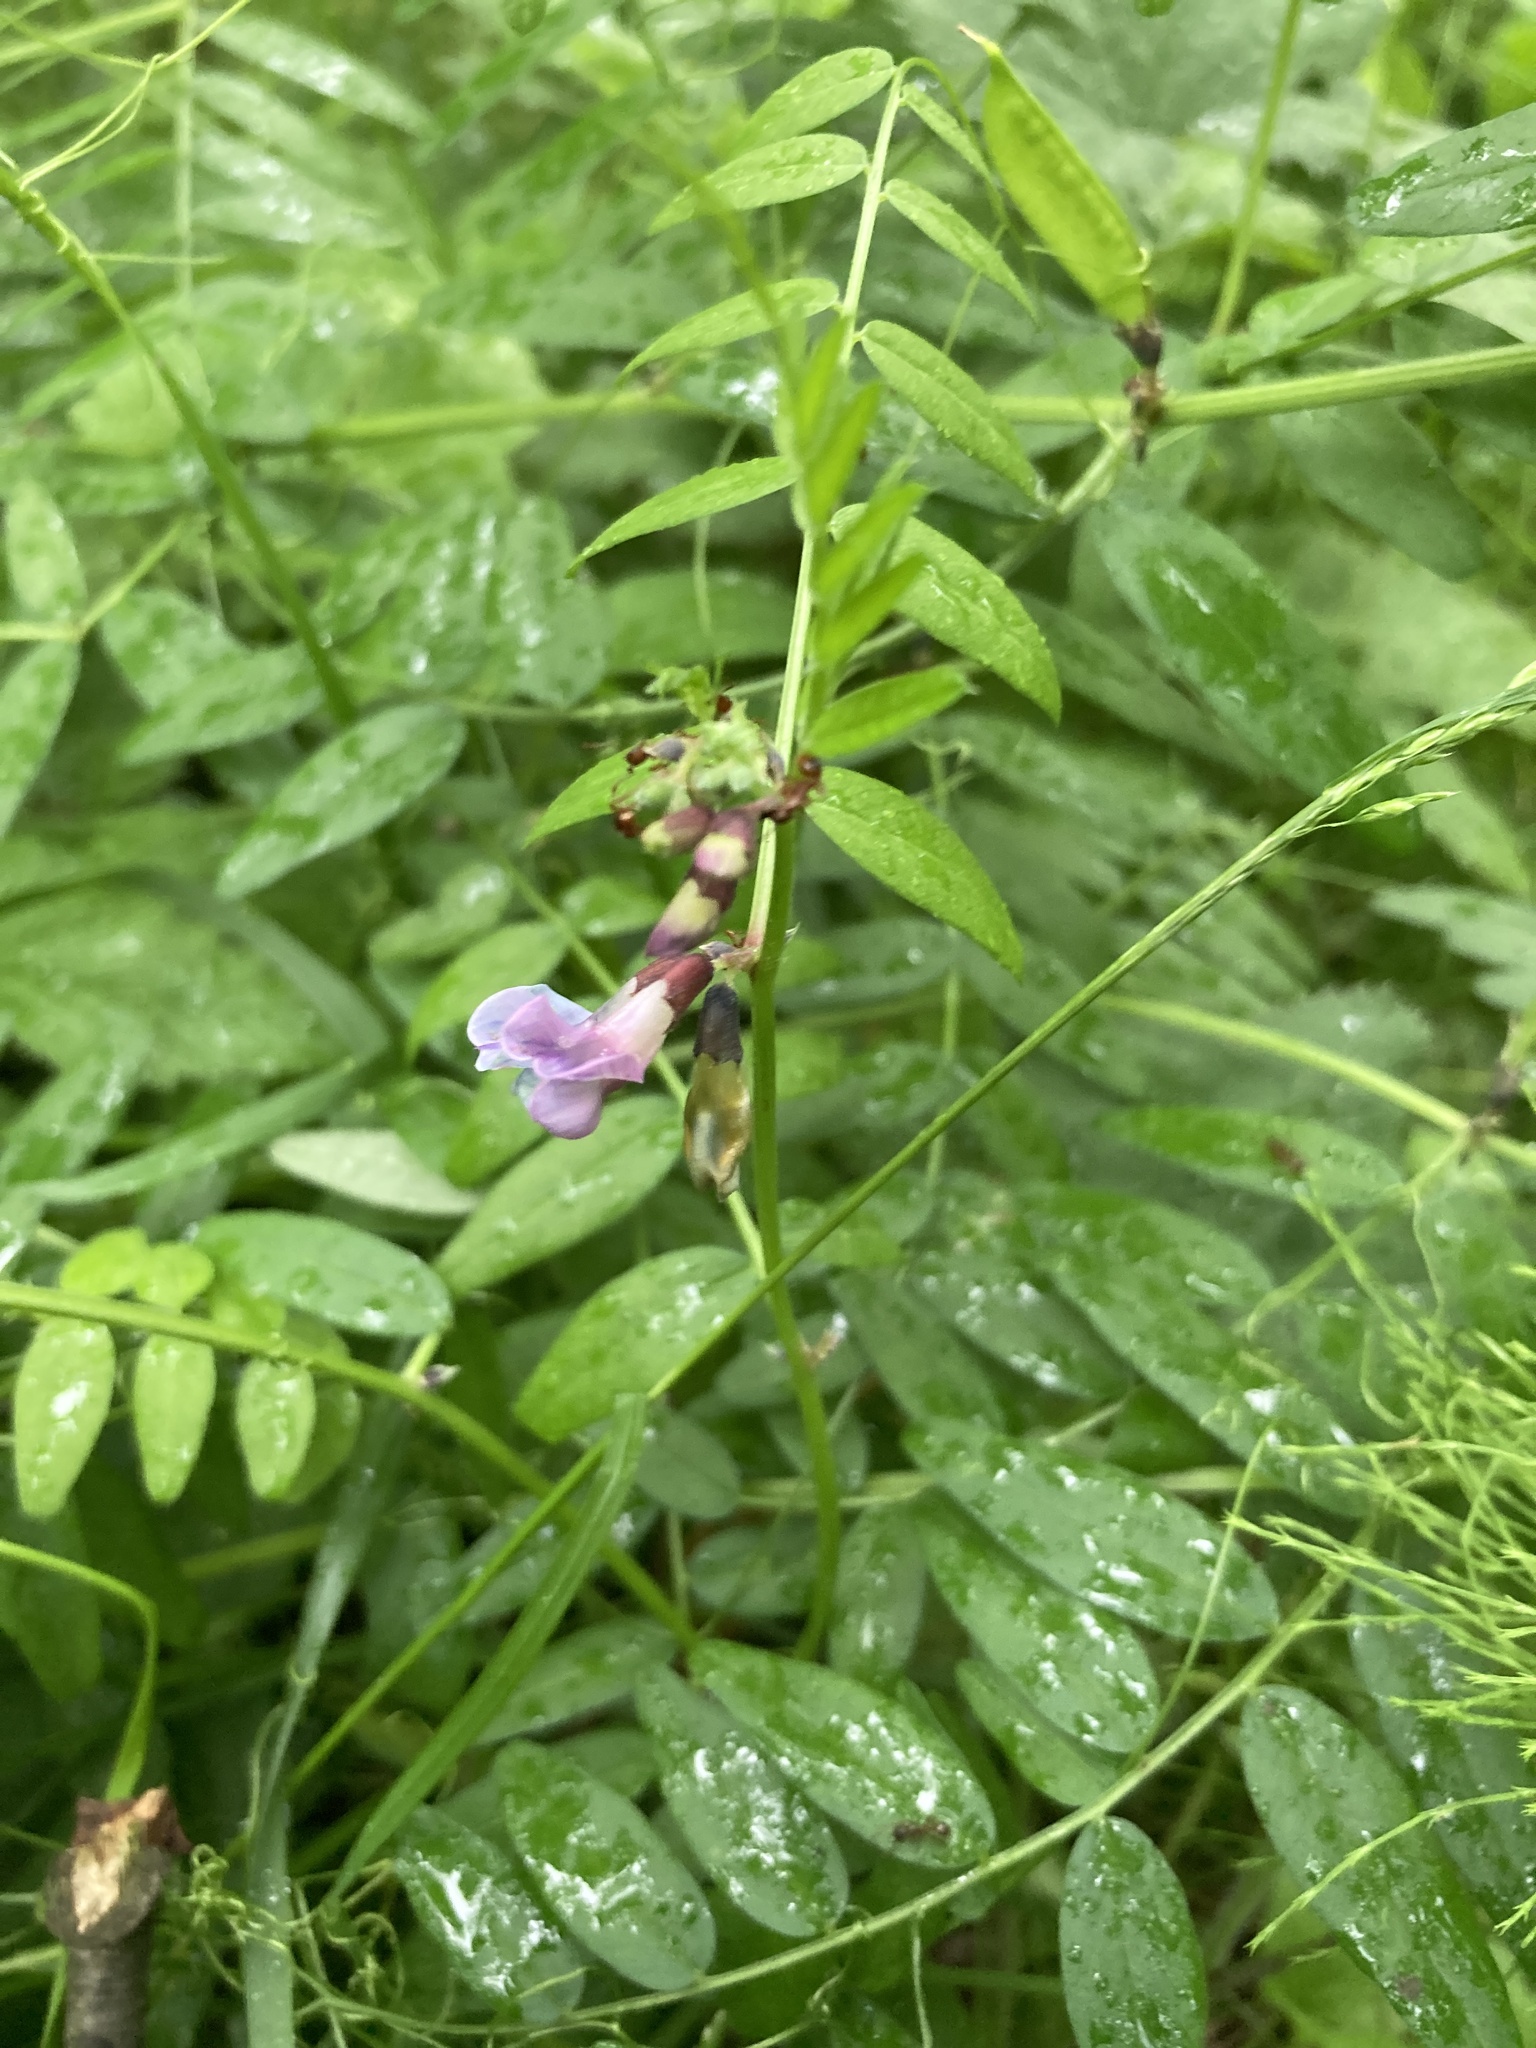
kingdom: Plantae
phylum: Tracheophyta
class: Magnoliopsida
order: Fabales
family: Fabaceae
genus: Vicia
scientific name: Vicia sepium
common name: Bush vetch
